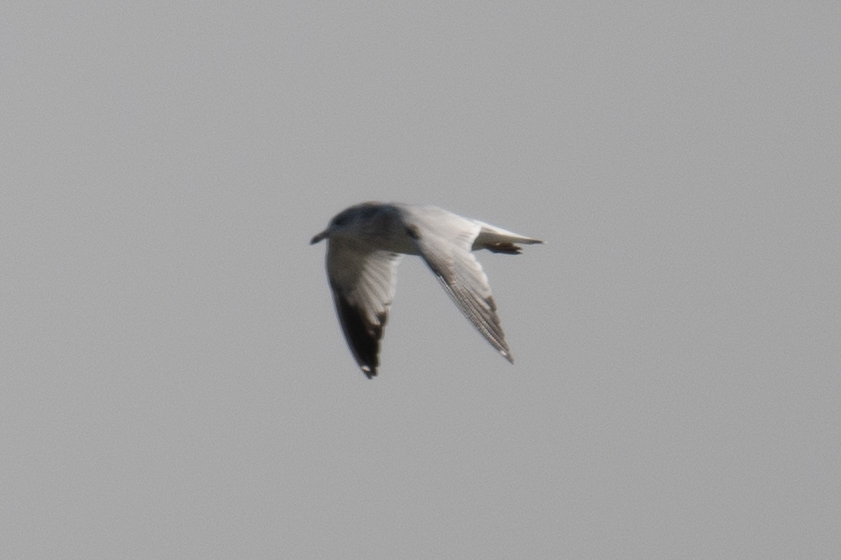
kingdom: Animalia
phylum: Chordata
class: Aves
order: Charadriiformes
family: Laridae
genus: Larus
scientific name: Larus delawarensis
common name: Ring-billed gull
